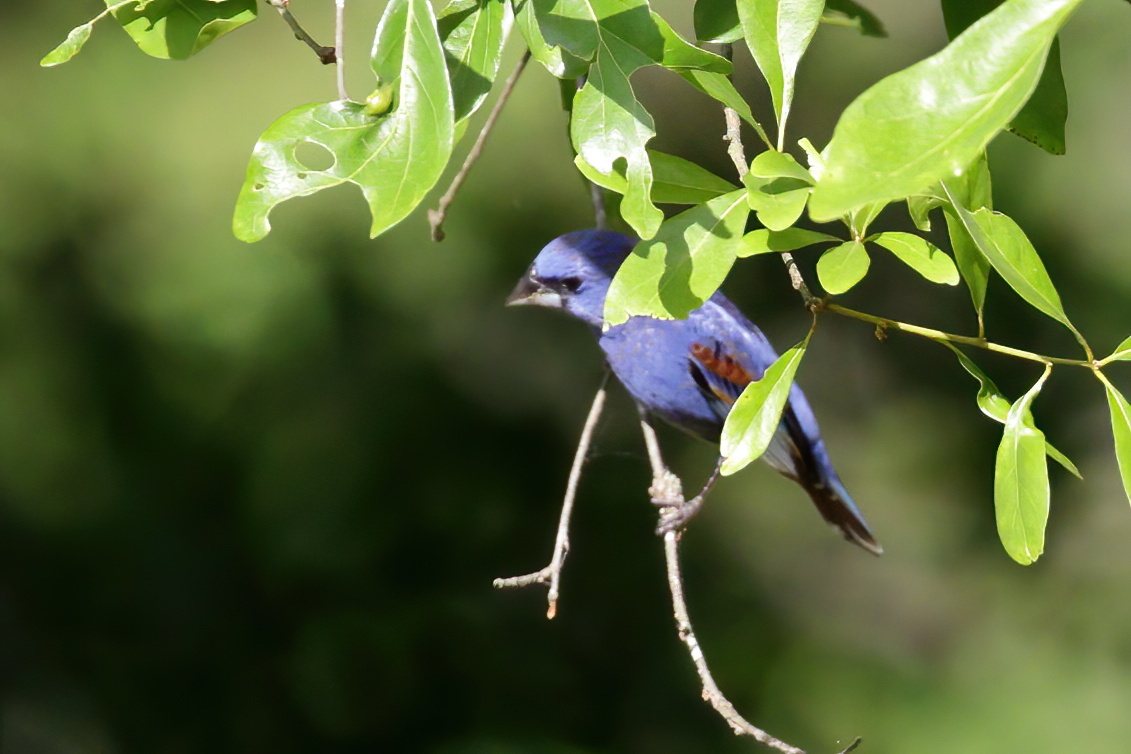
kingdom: Animalia
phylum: Chordata
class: Aves
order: Passeriformes
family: Cardinalidae
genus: Passerina
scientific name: Passerina caerulea
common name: Blue grosbeak
